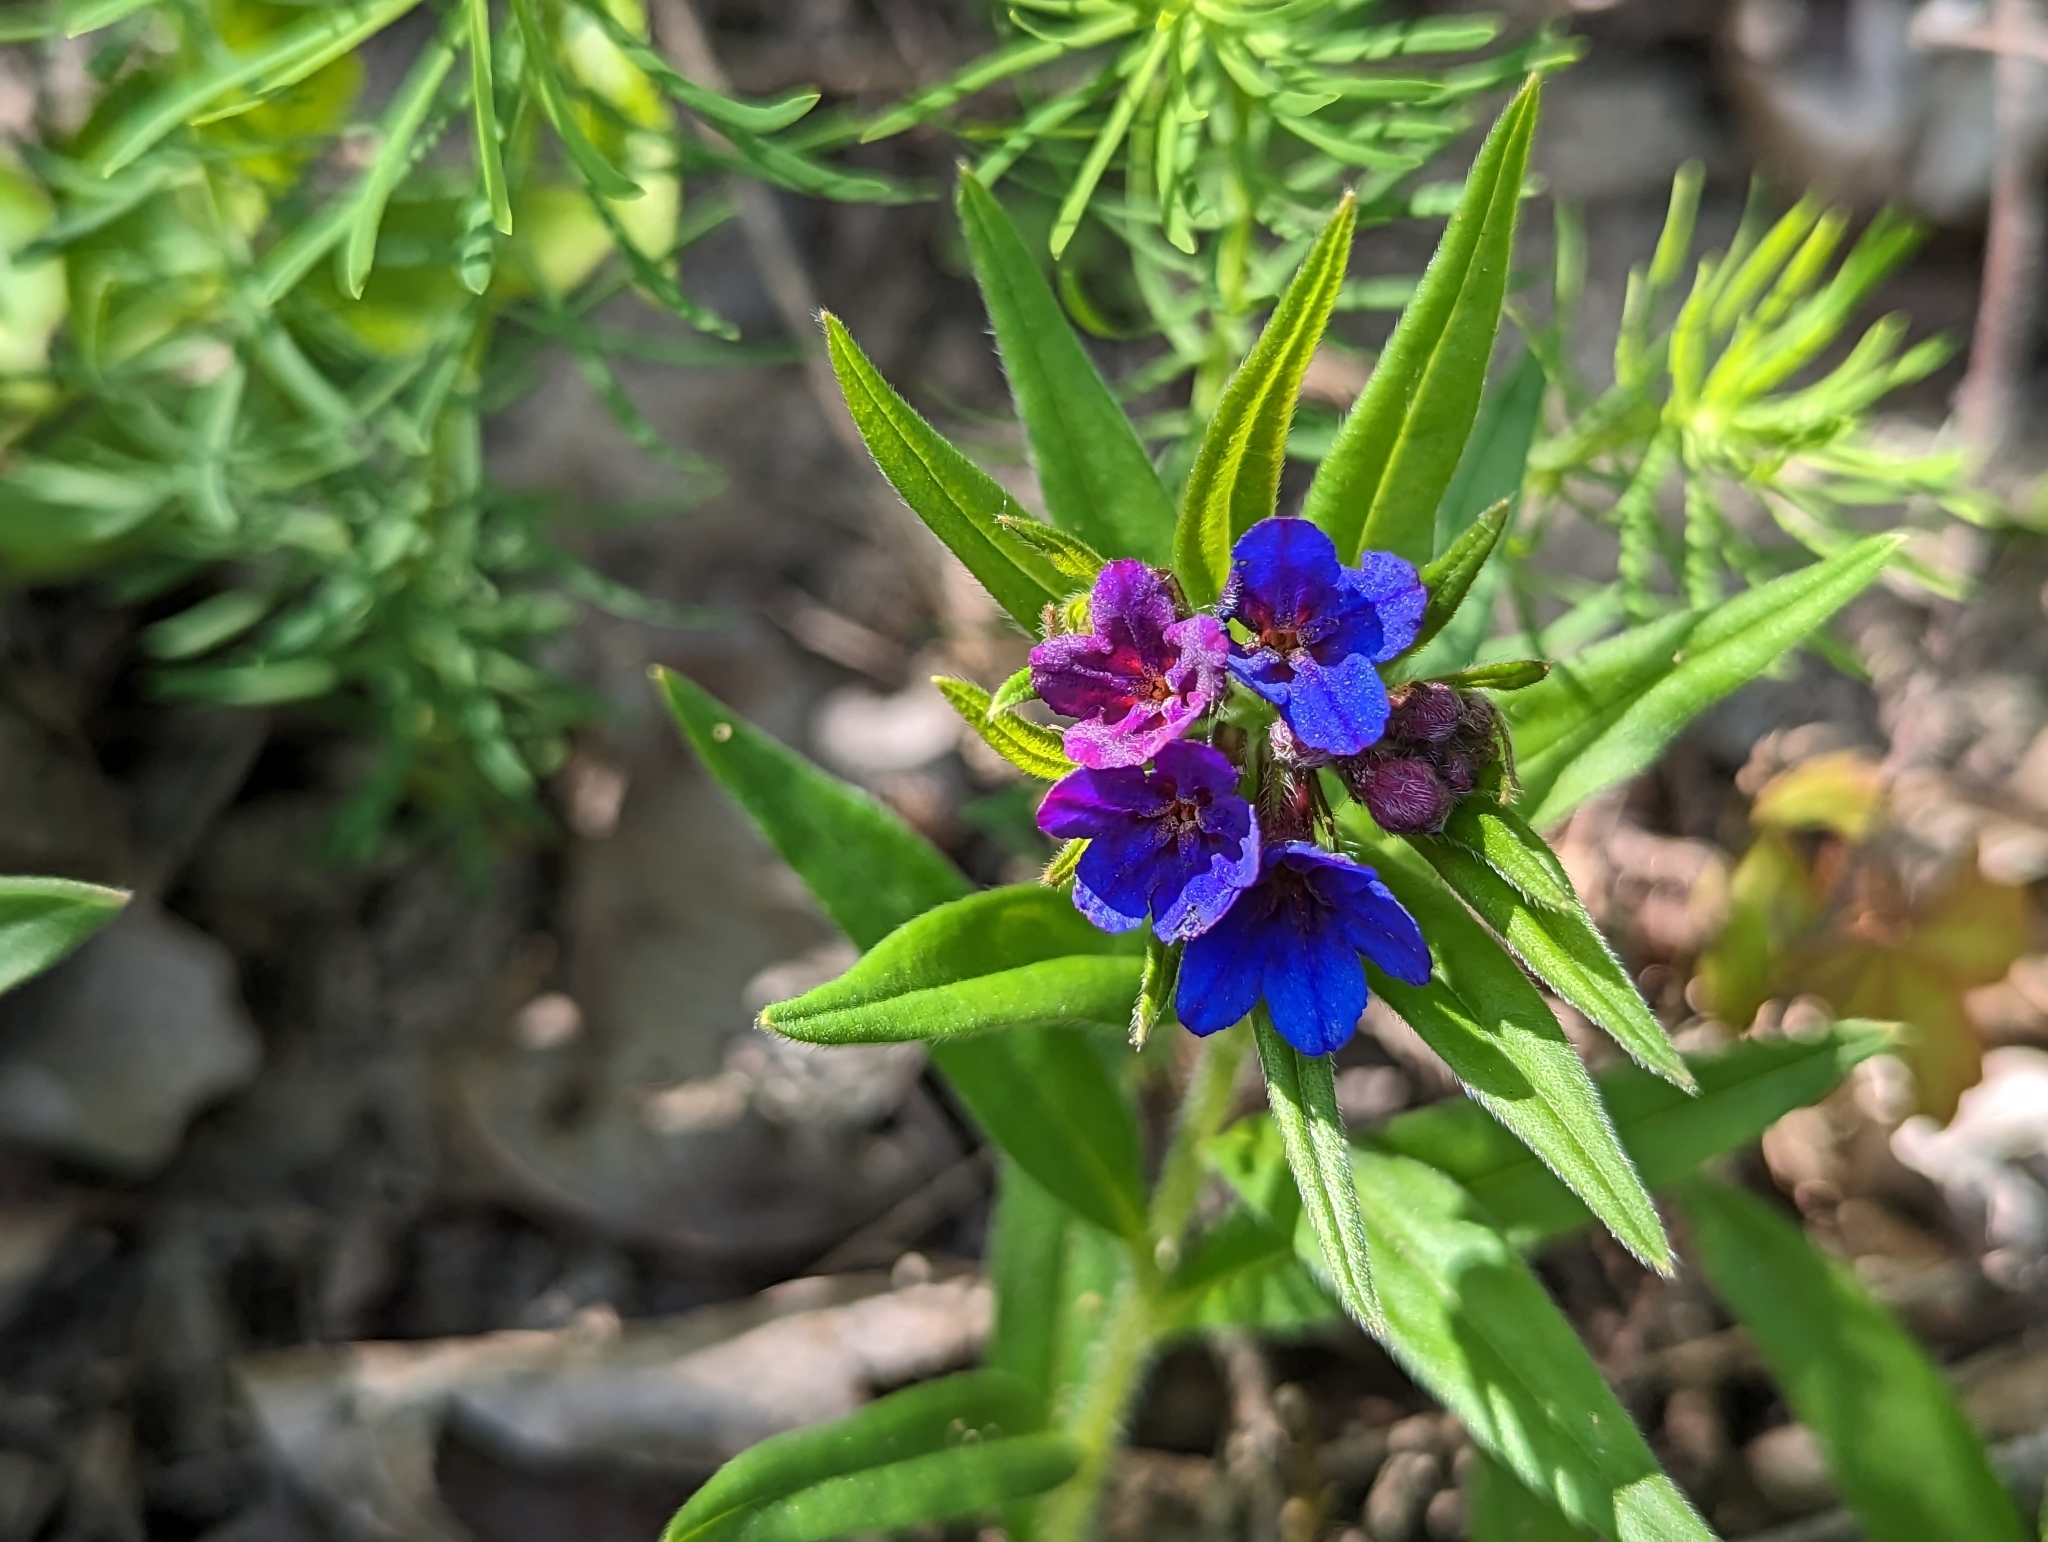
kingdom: Plantae
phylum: Tracheophyta
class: Magnoliopsida
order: Boraginales
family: Boraginaceae
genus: Aegonychon
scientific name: Aegonychon purpurocaeruleum
